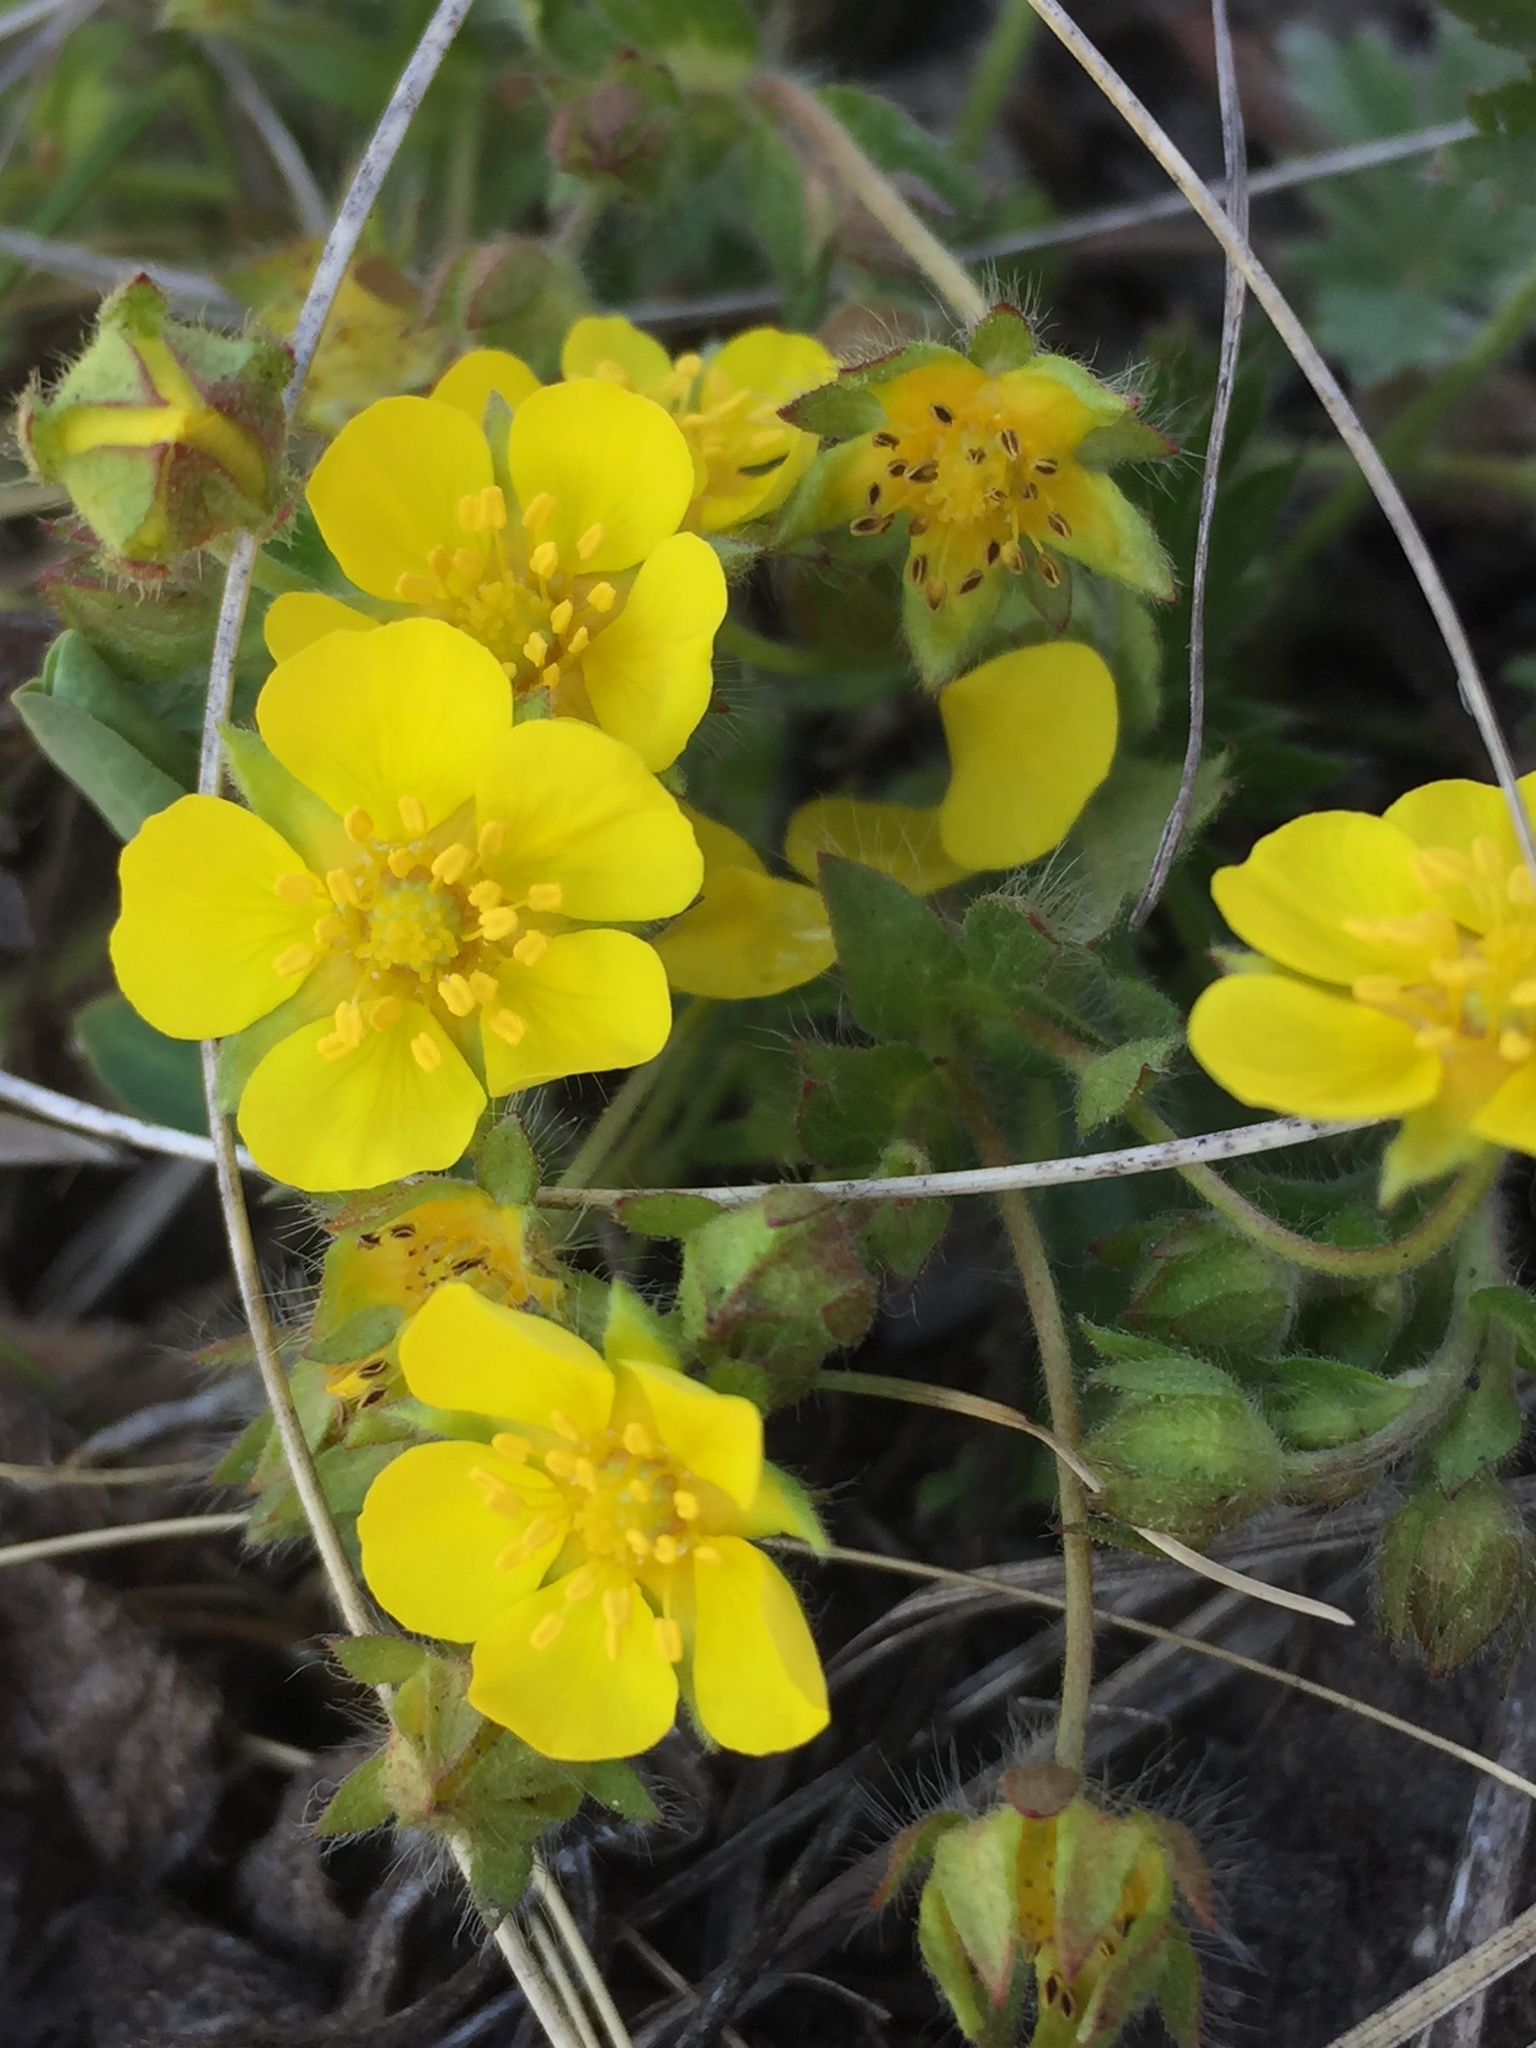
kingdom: Plantae
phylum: Tracheophyta
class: Magnoliopsida
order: Rosales
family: Rosaceae
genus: Potentilla
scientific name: Potentilla humifusa
